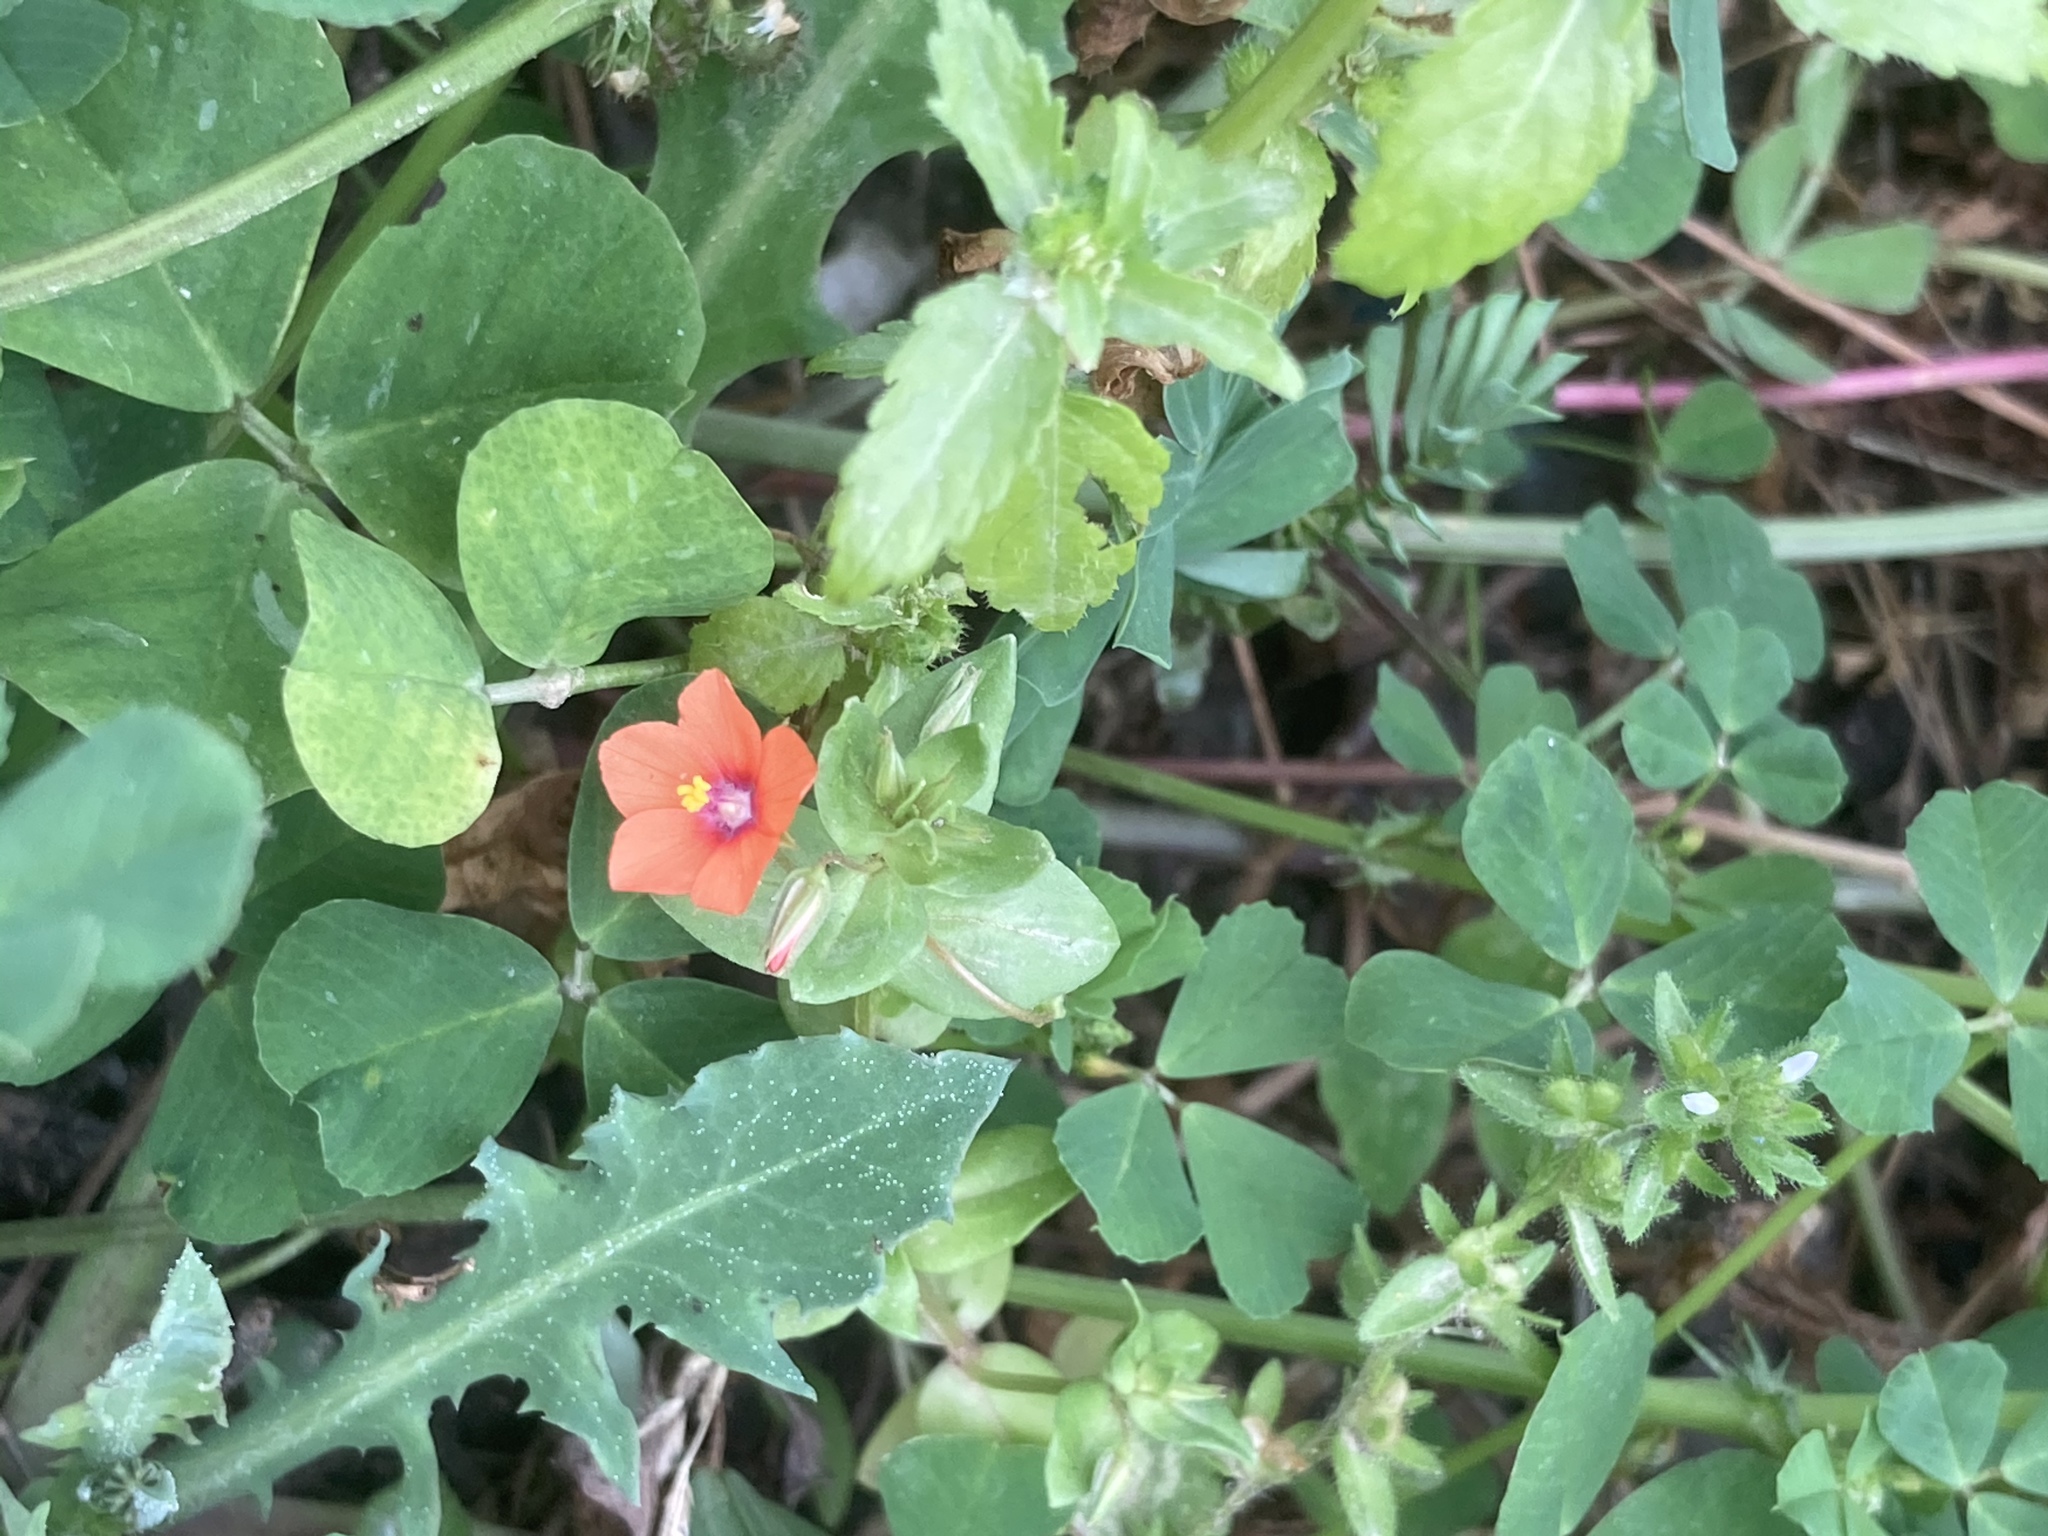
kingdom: Plantae
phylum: Tracheophyta
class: Magnoliopsida
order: Ericales
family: Primulaceae
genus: Lysimachia
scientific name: Lysimachia arvensis
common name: Scarlet pimpernel
